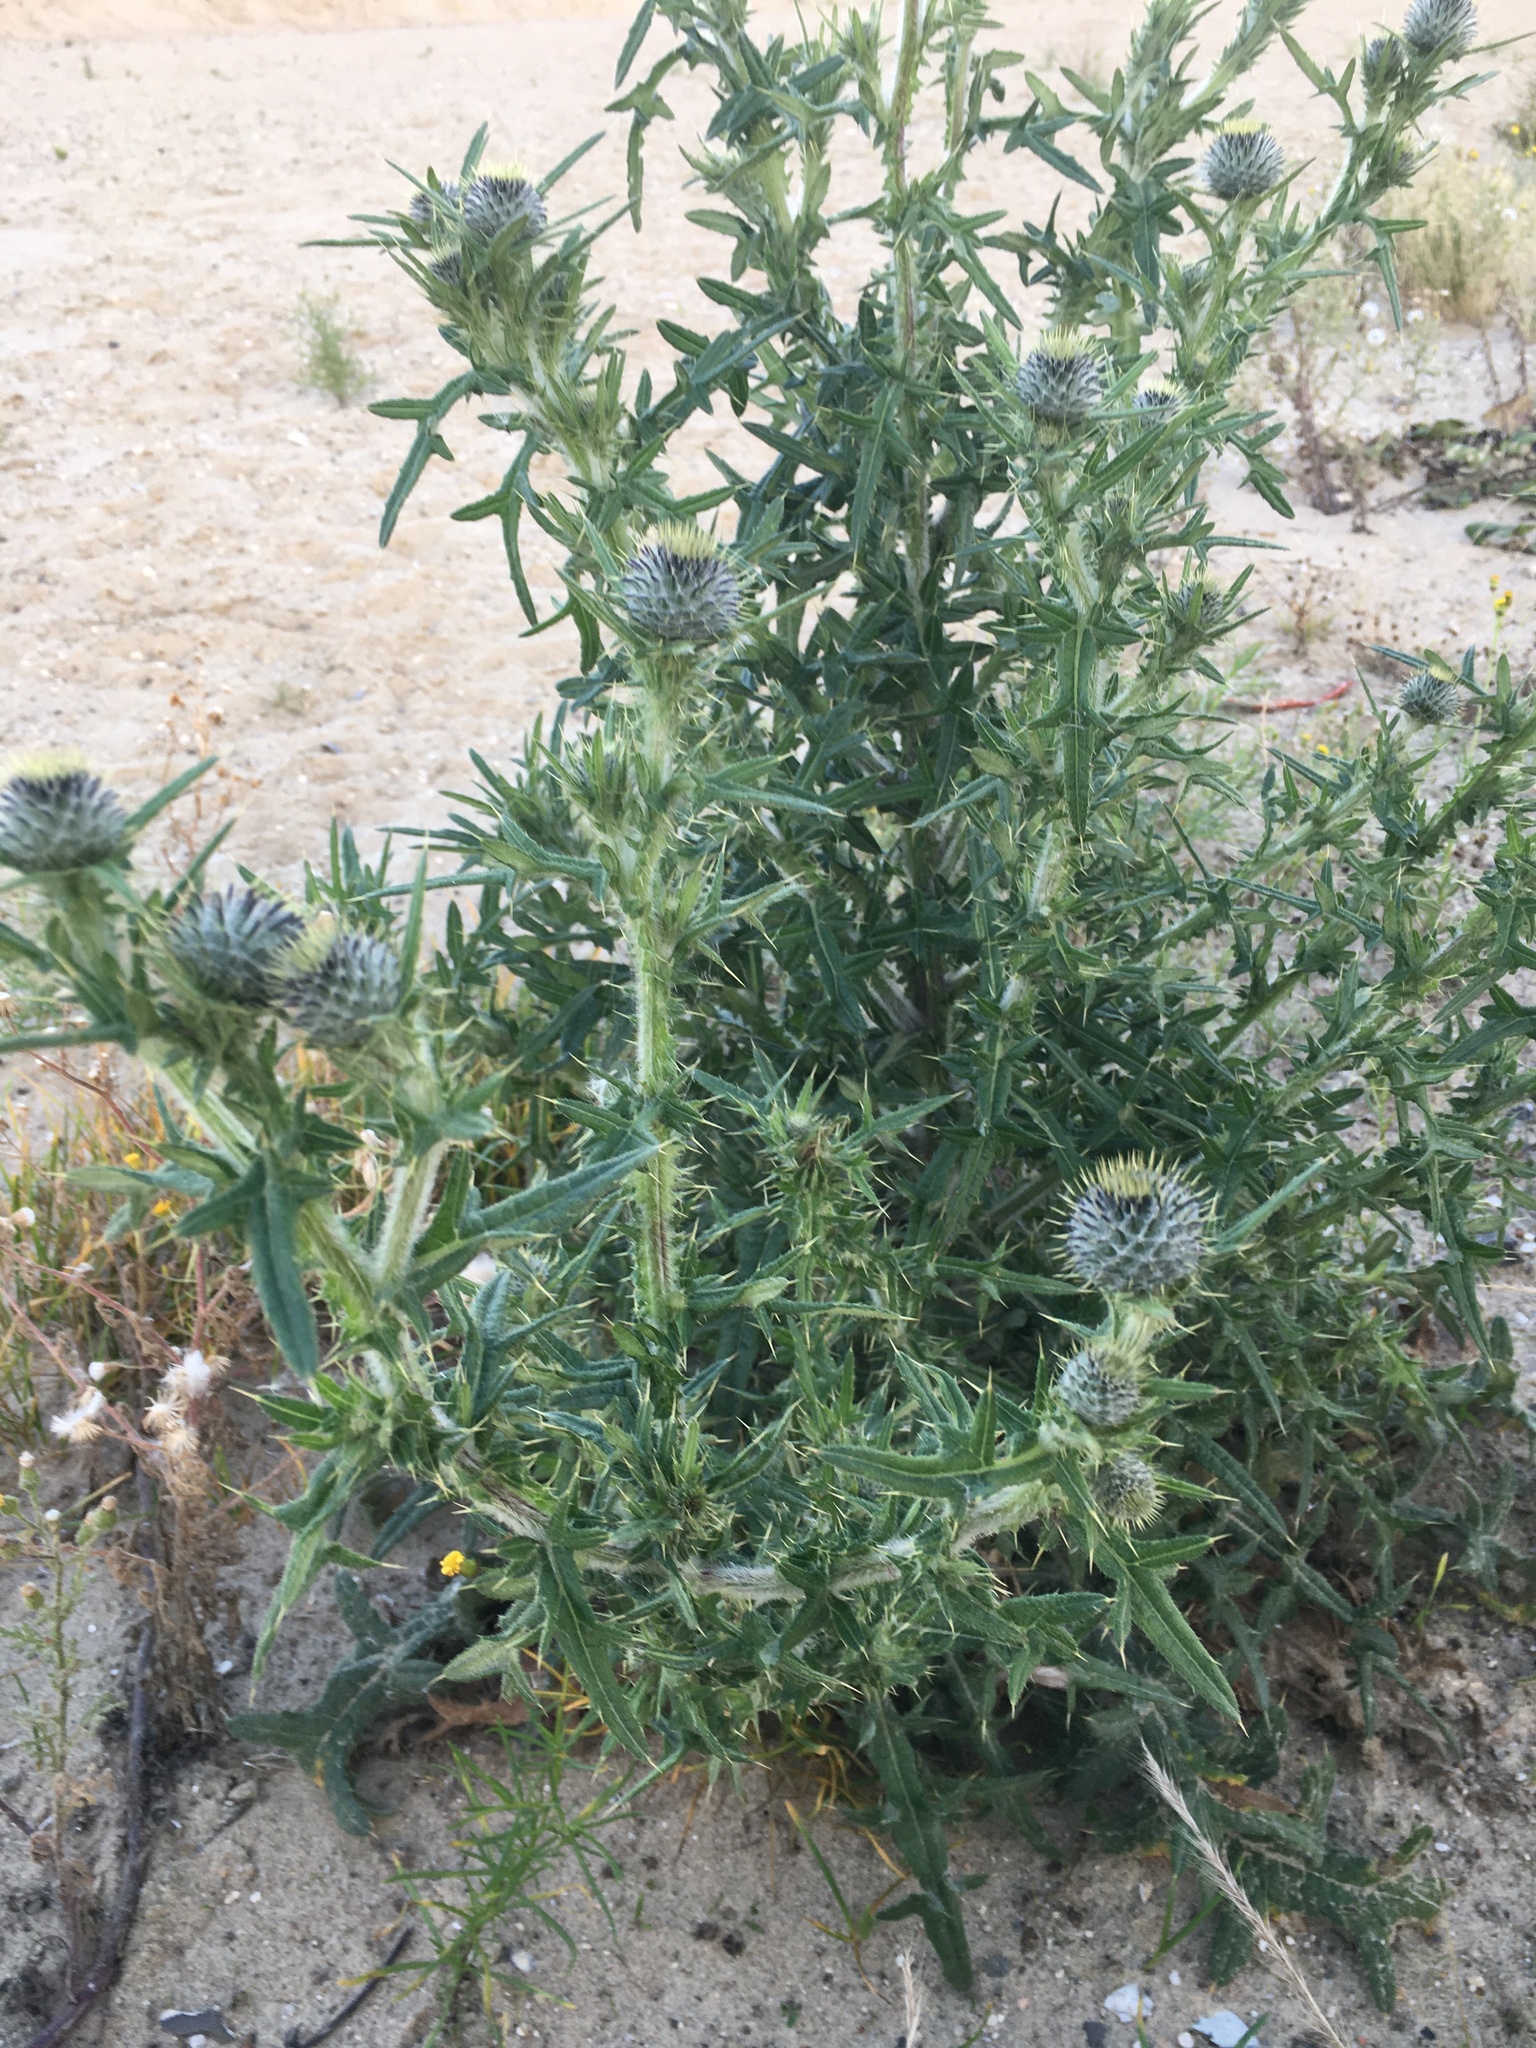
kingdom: Plantae
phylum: Tracheophyta
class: Magnoliopsida
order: Asterales
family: Asteraceae
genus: Cirsium
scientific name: Cirsium vulgare
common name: Bull thistle
